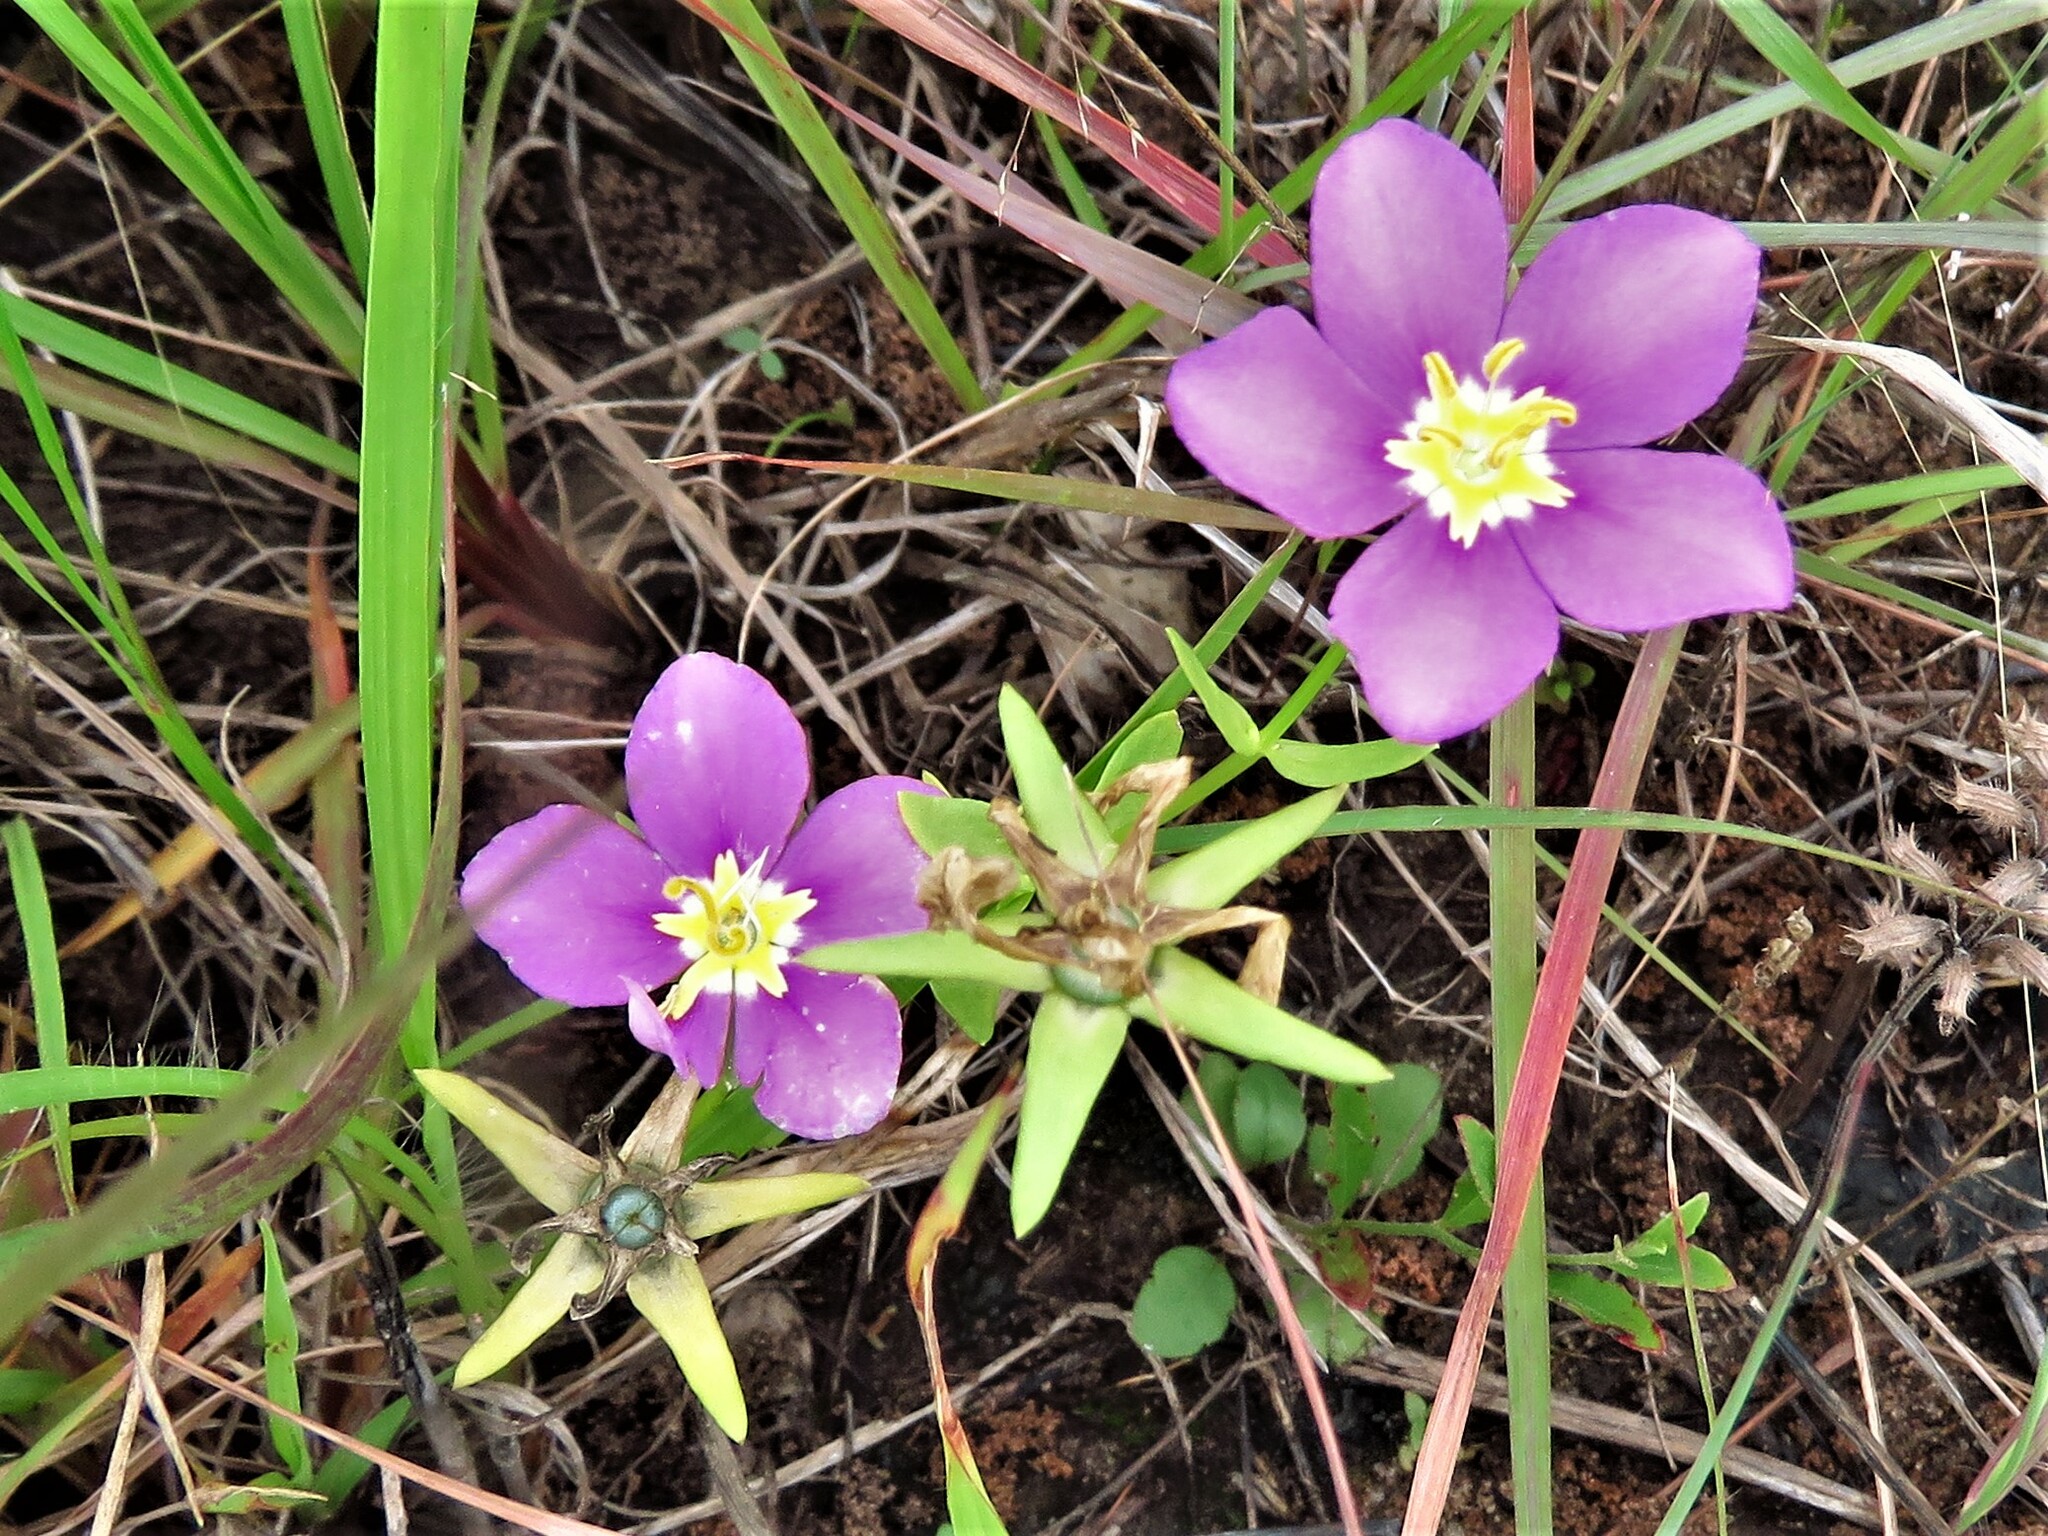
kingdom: Plantae
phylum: Tracheophyta
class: Magnoliopsida
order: Gentianales
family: Gentianaceae
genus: Sabatia
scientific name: Sabatia campestris
